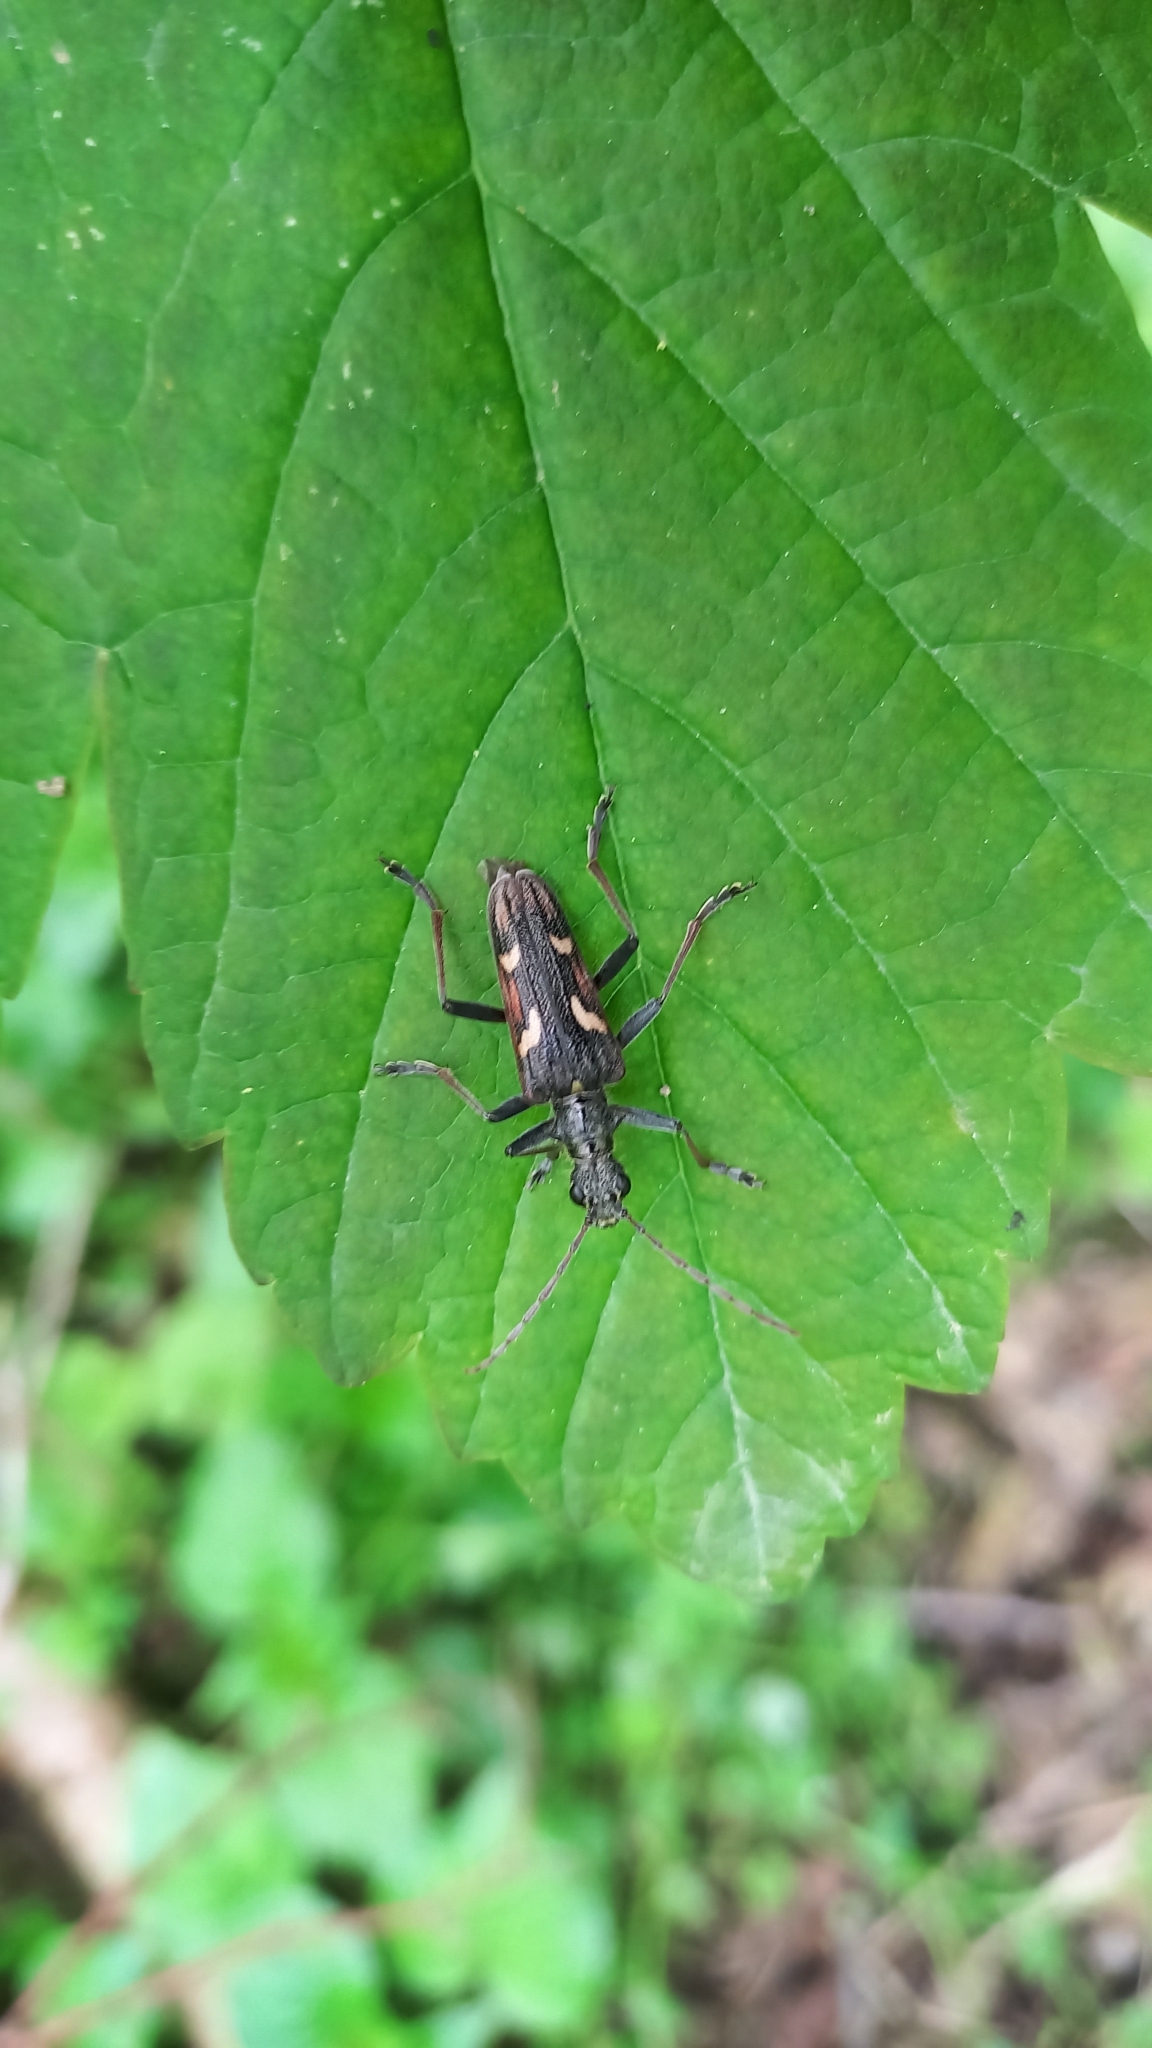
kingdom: Animalia
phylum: Arthropoda
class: Insecta
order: Coleoptera
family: Cerambycidae
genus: Rhagium
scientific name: Rhagium bifasciatum
